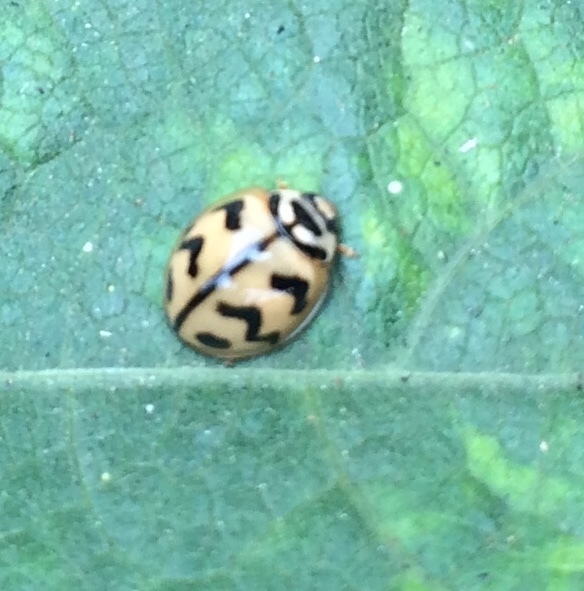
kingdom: Animalia
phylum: Arthropoda
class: Insecta
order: Coleoptera
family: Coccinellidae
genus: Cheilomenes
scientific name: Cheilomenes sexmaculata
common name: Ladybird beetle
